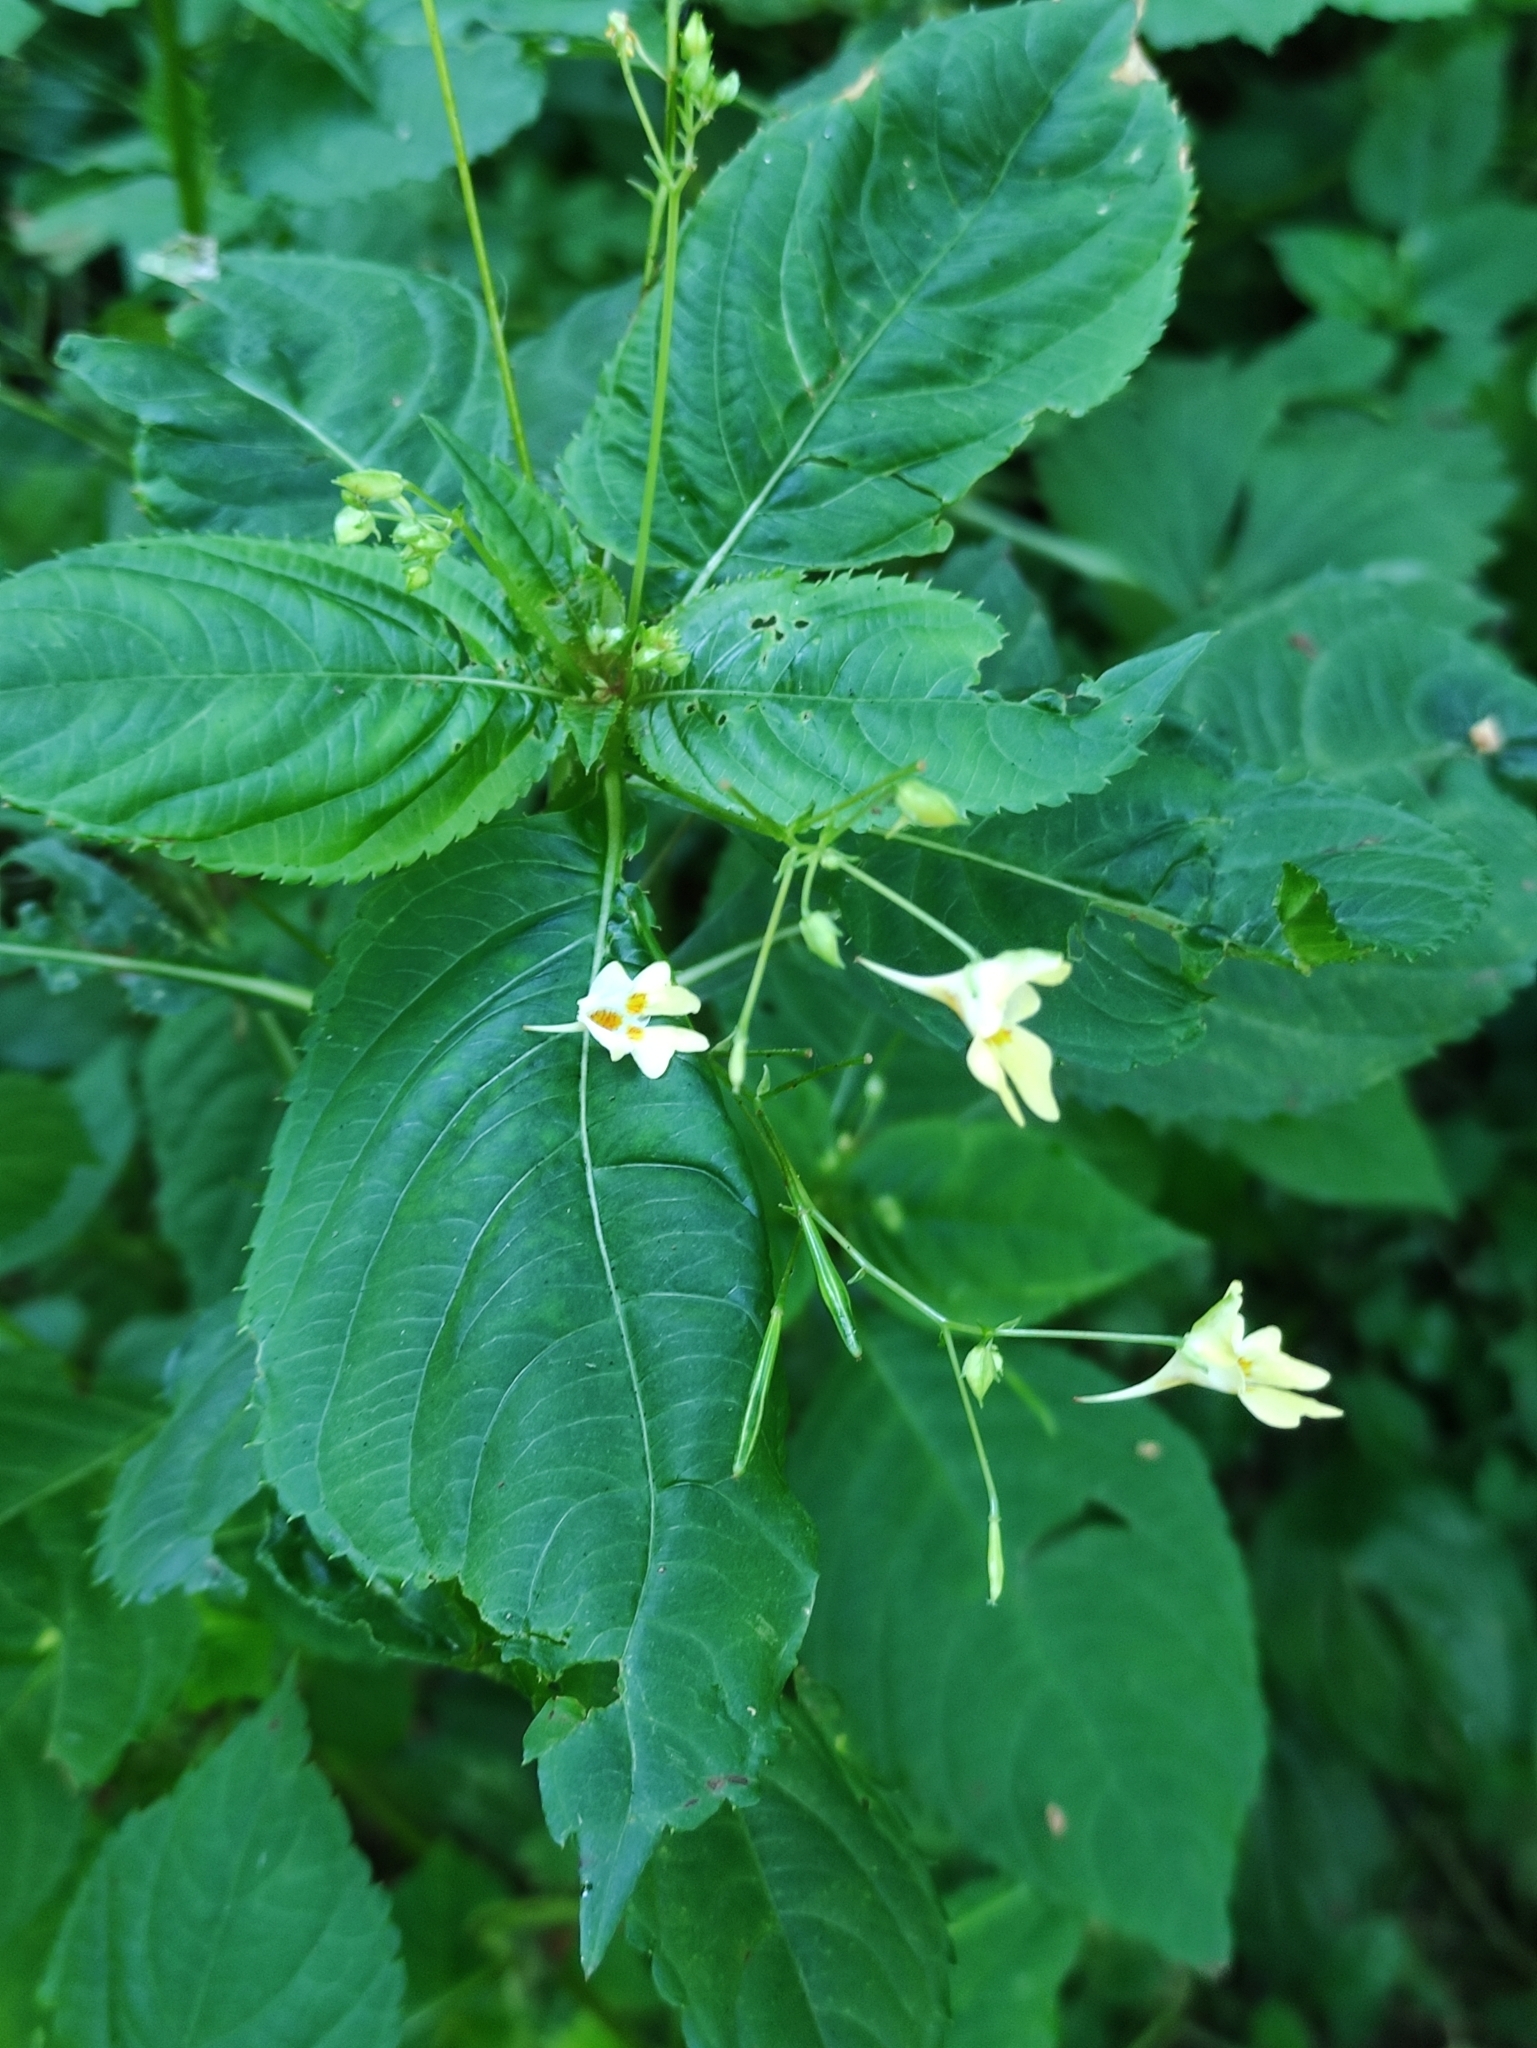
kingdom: Plantae
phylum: Tracheophyta
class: Magnoliopsida
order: Ericales
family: Balsaminaceae
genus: Impatiens
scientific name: Impatiens parviflora
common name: Small balsam
